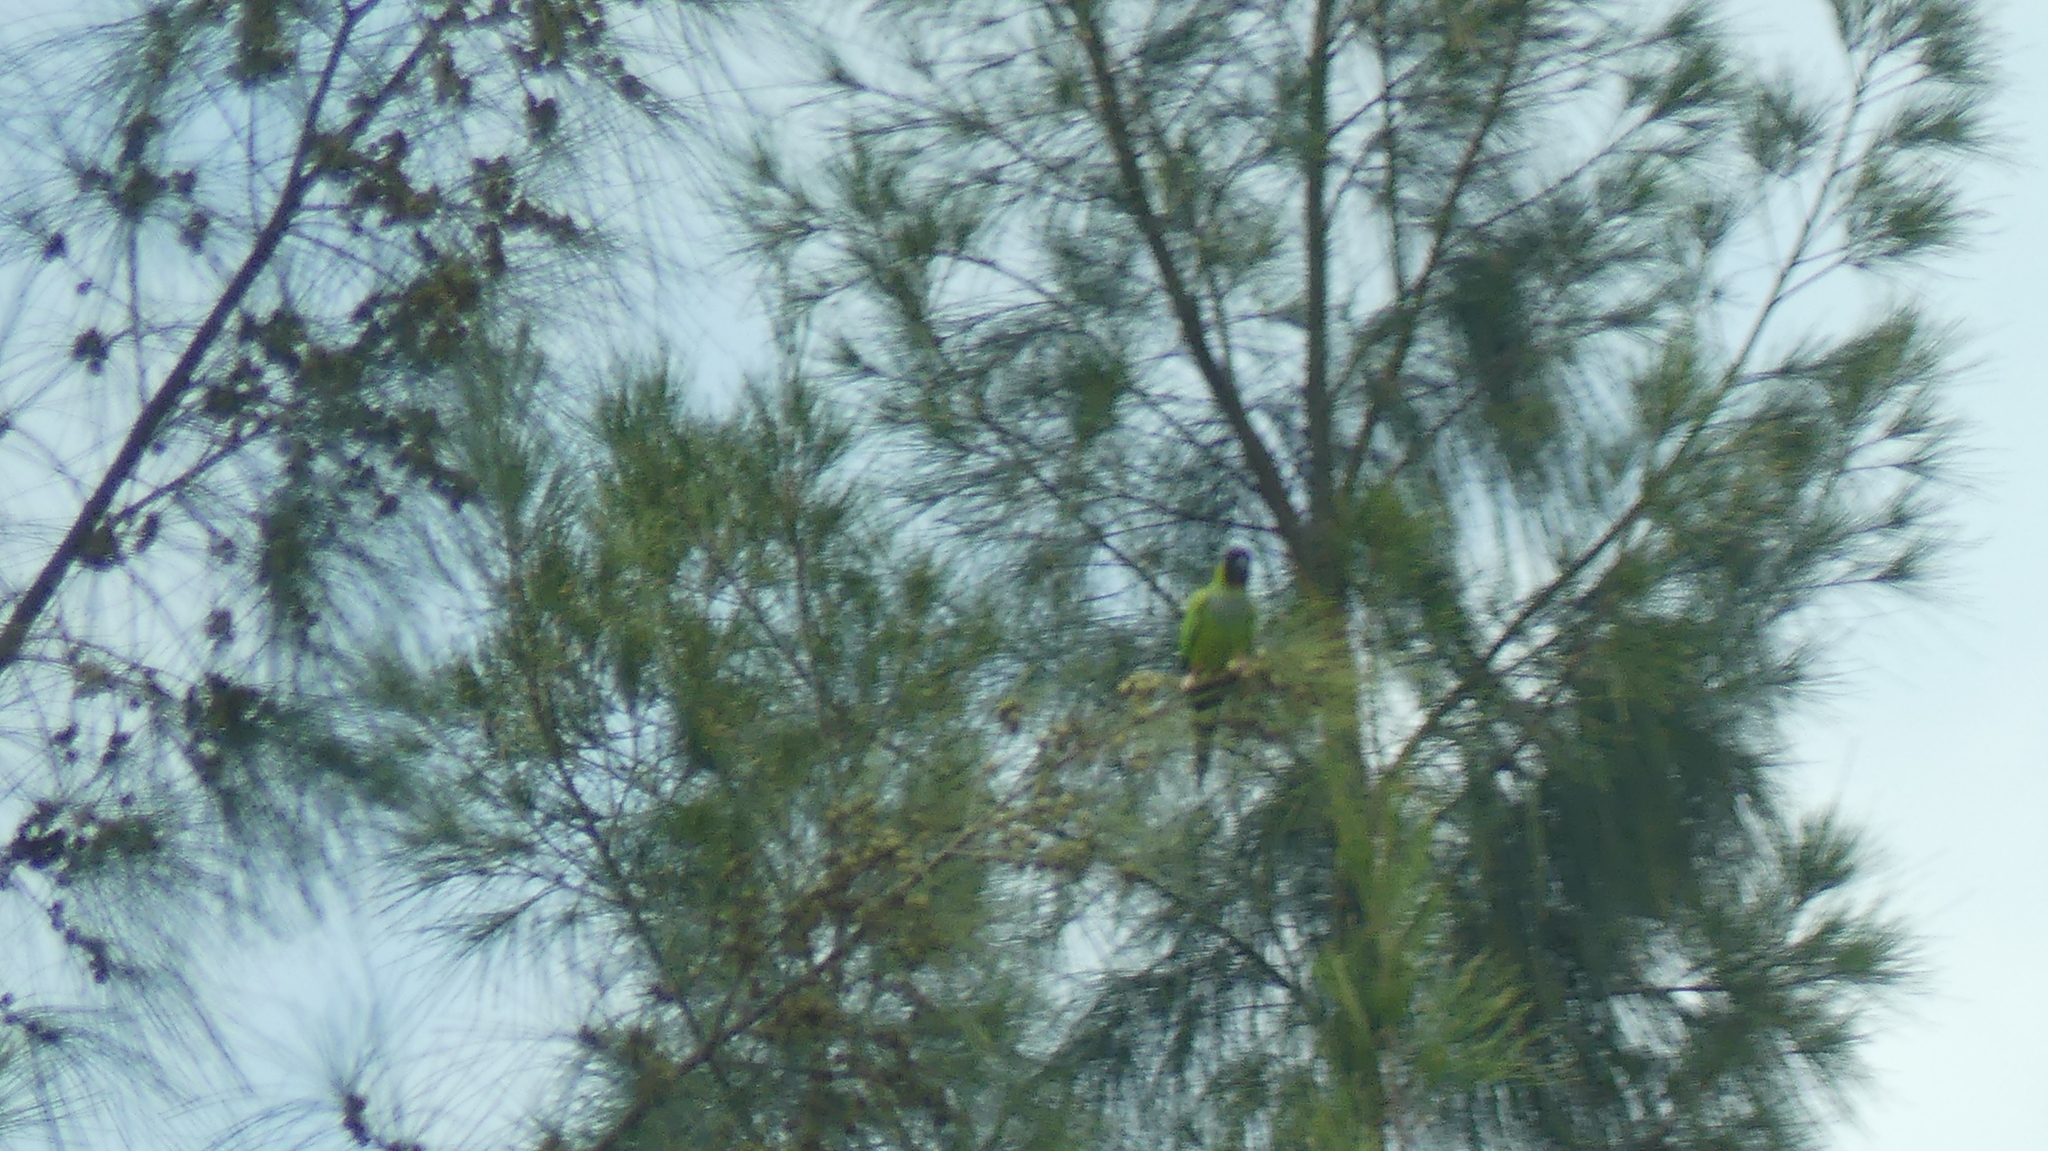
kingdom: Animalia
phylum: Chordata
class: Aves
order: Psittaciformes
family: Psittacidae
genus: Nandayus
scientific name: Nandayus nenday
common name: Nanday parakeet
